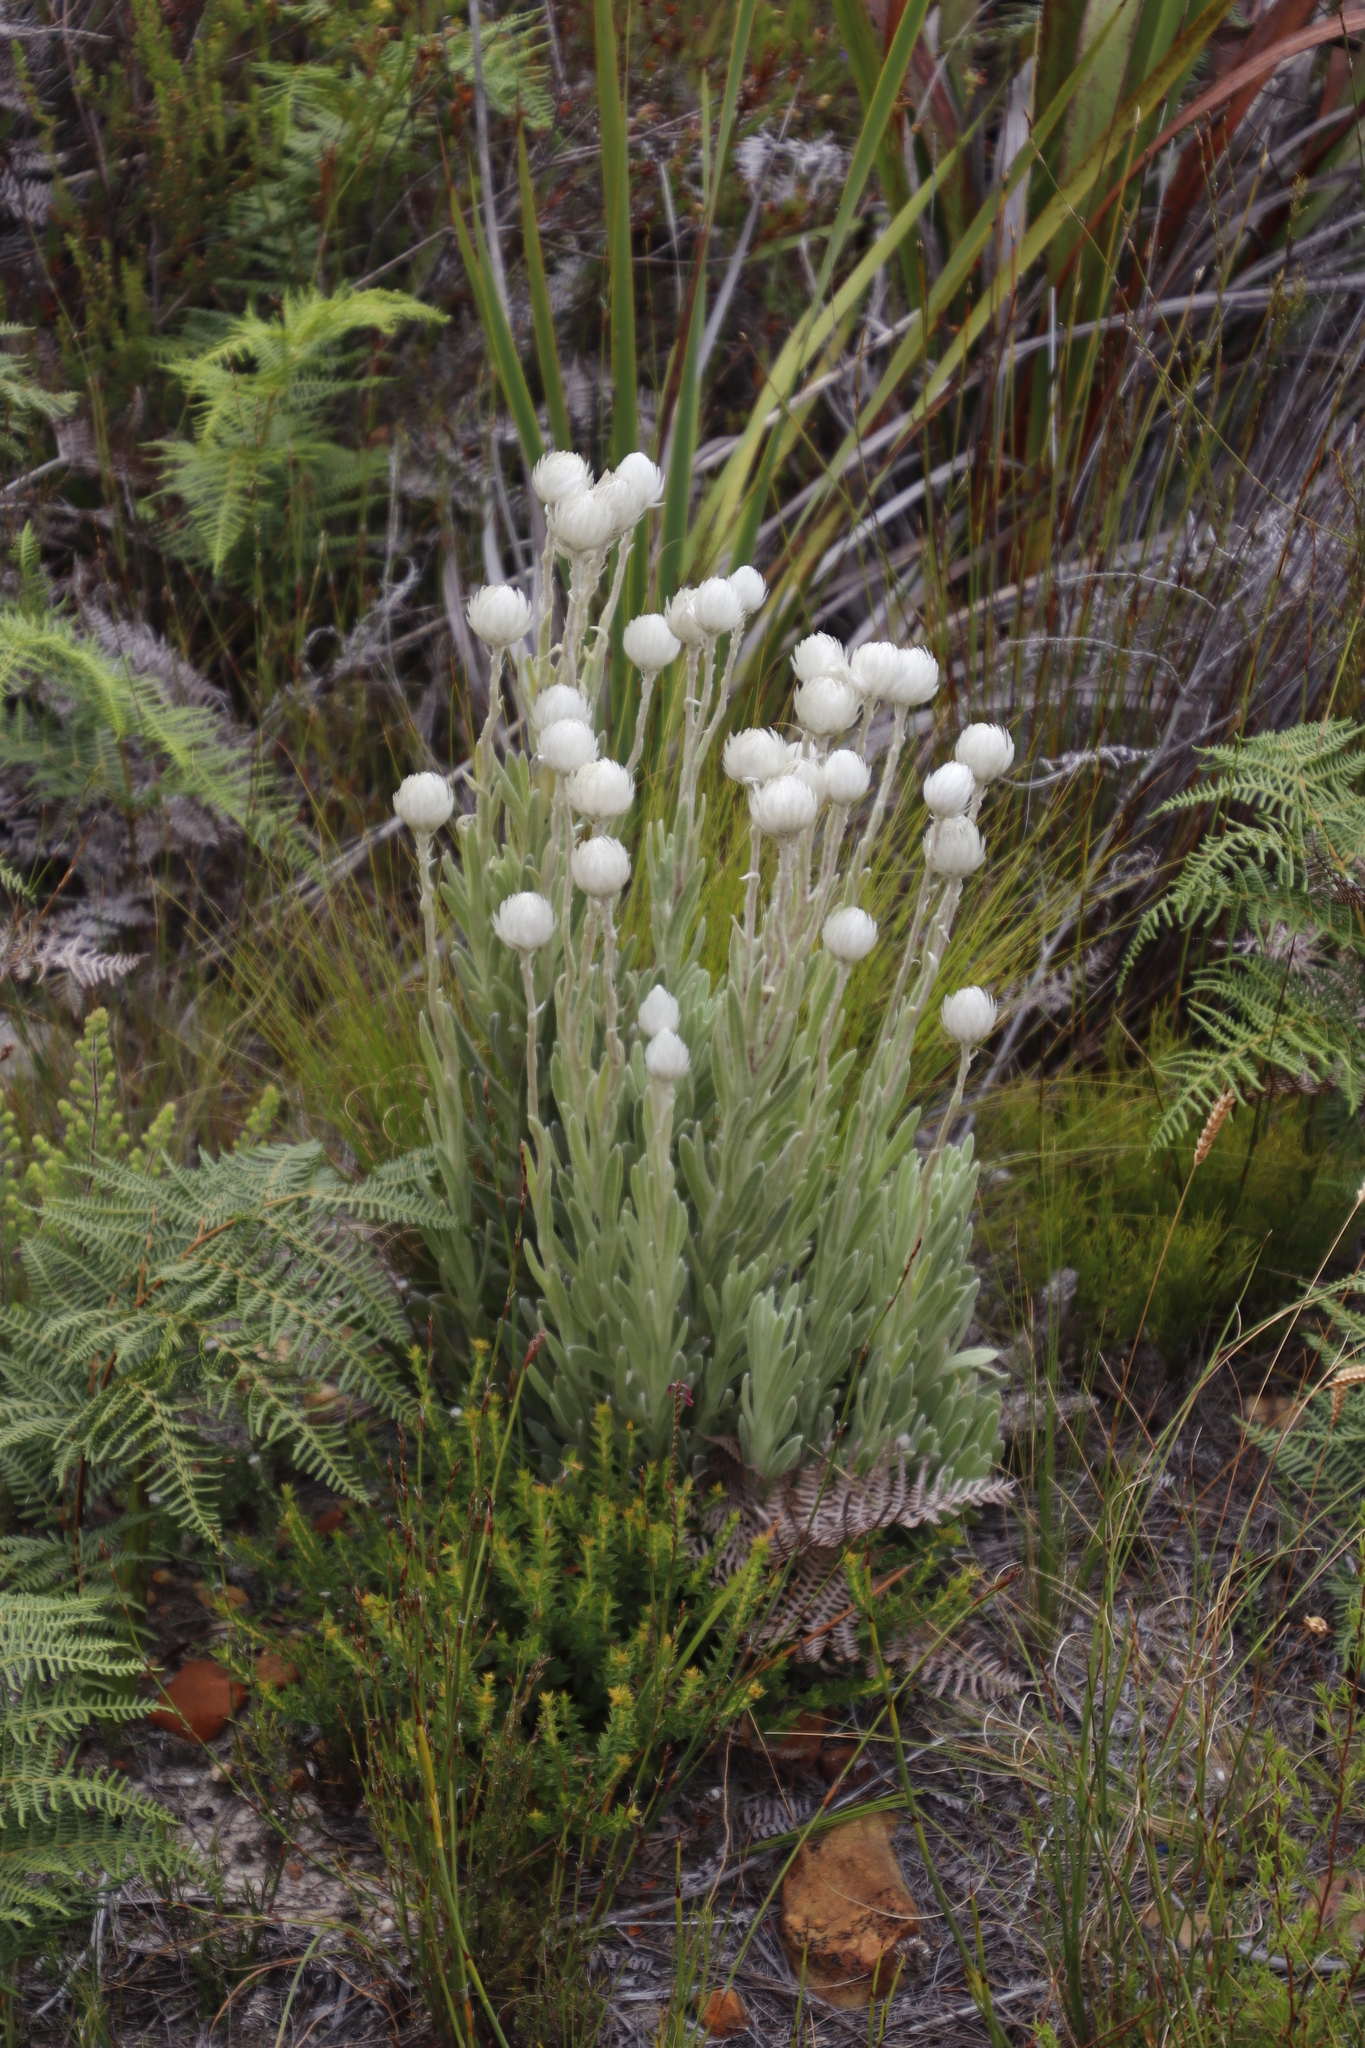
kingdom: Plantae
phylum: Tracheophyta
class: Magnoliopsida
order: Asterales
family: Asteraceae
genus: Syncarpha
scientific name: Syncarpha vestita
